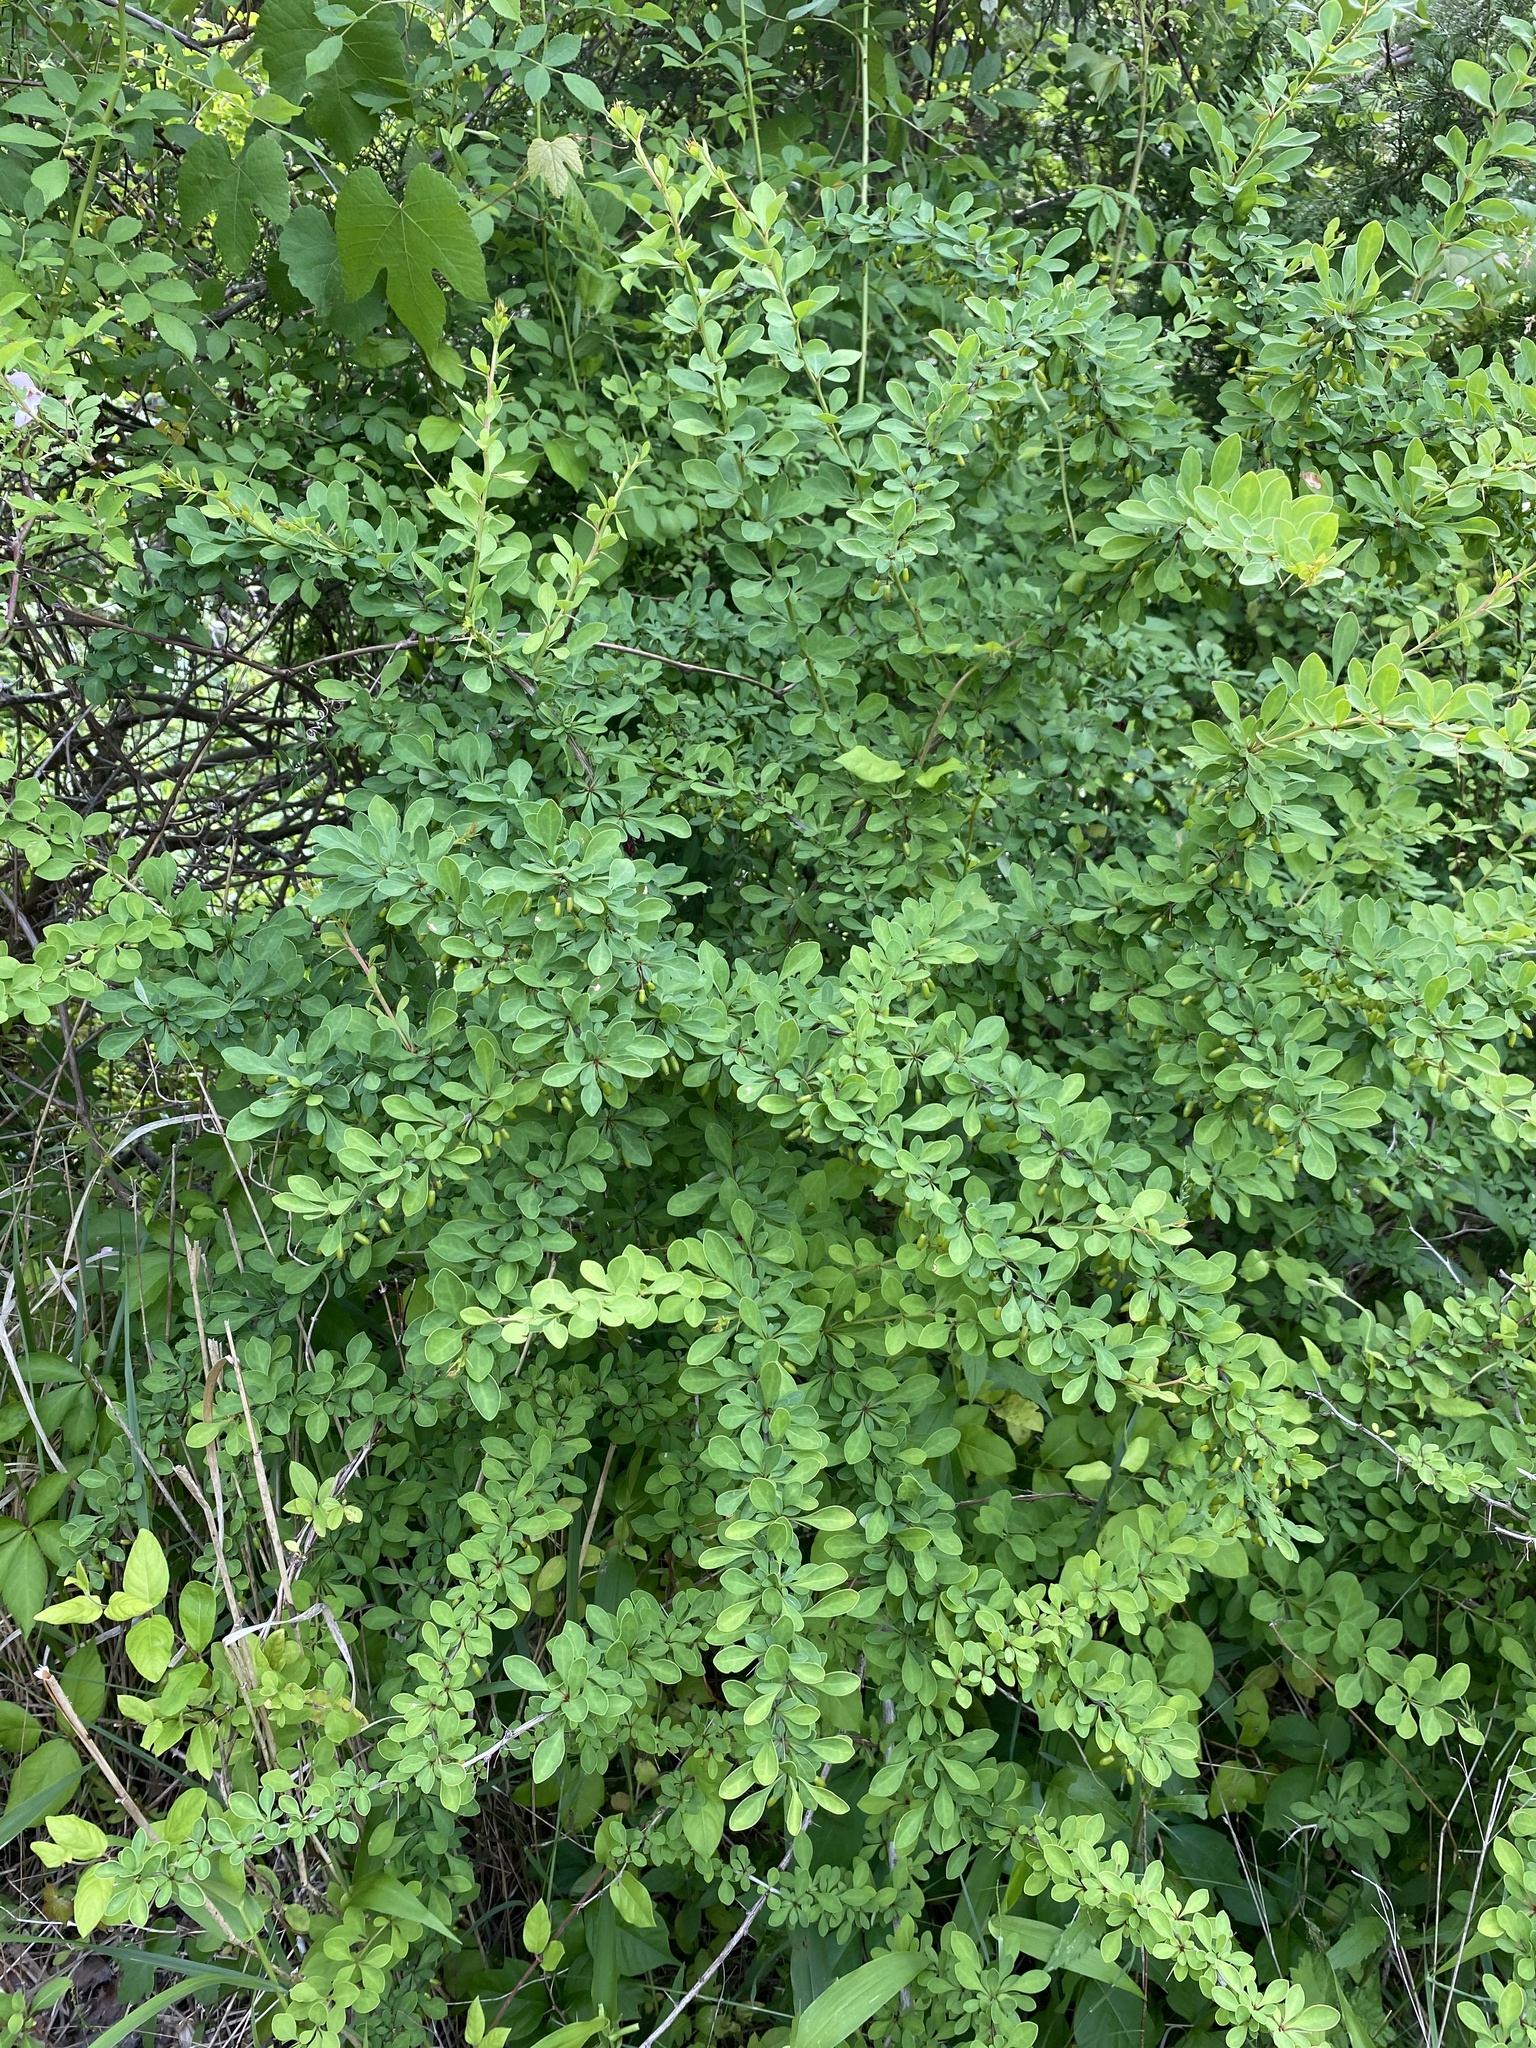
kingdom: Plantae
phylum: Tracheophyta
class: Magnoliopsida
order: Ranunculales
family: Berberidaceae
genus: Berberis
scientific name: Berberis thunbergii
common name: Japanese barberry
